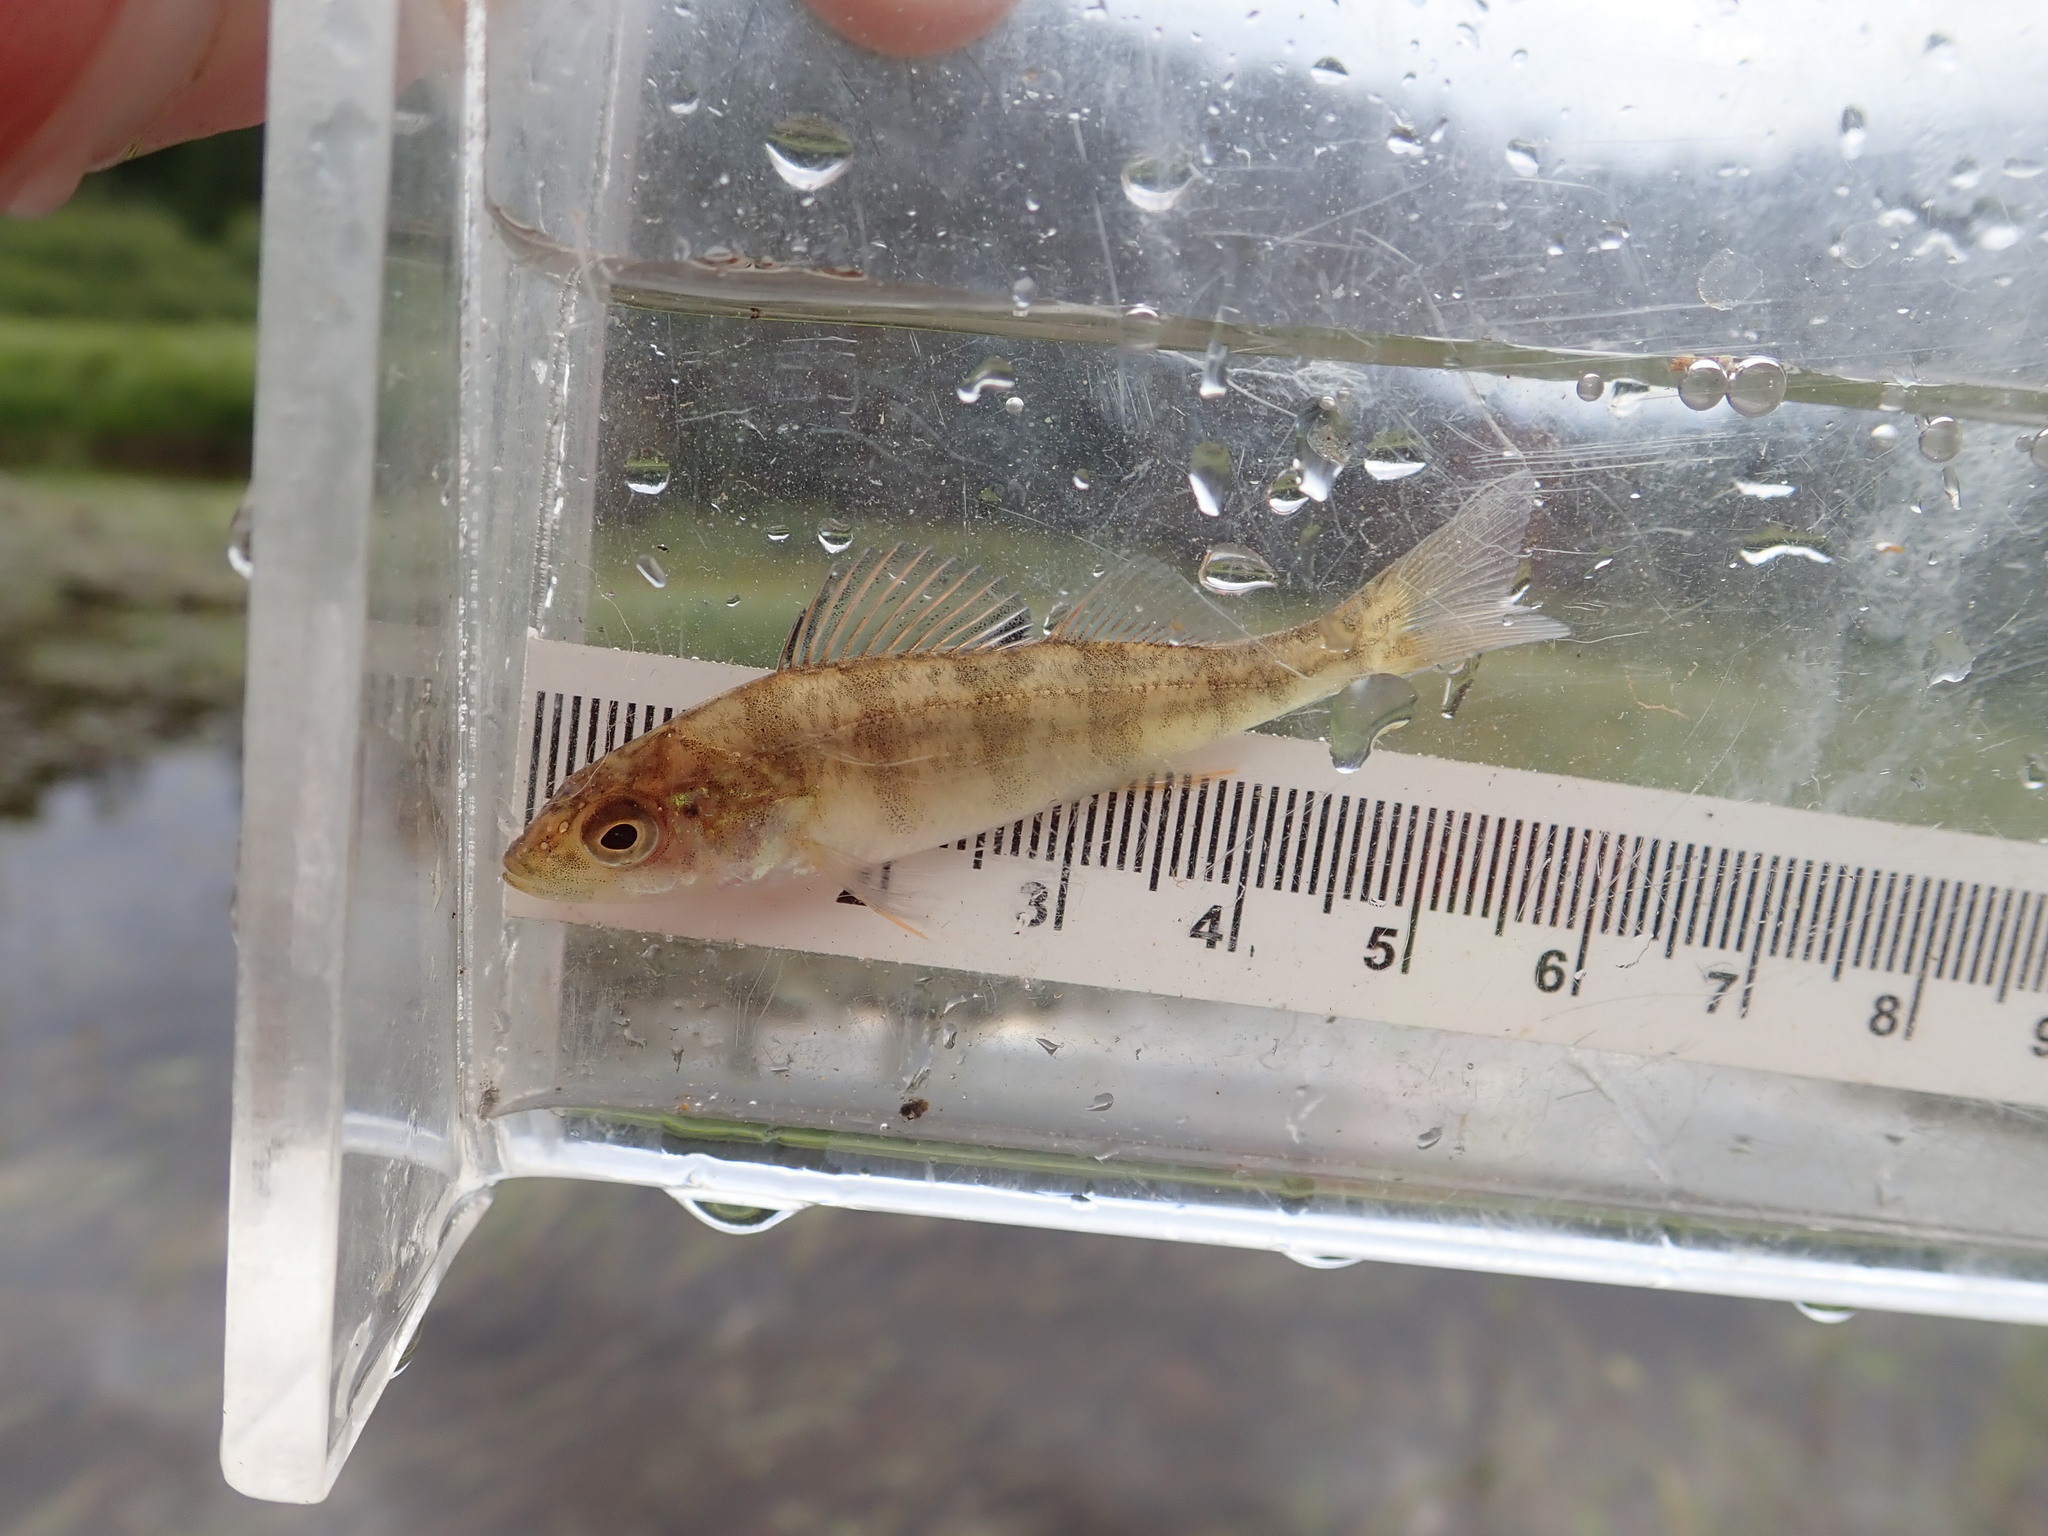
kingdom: Animalia
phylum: Chordata
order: Perciformes
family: Percidae
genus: Perca
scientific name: Perca flavescens
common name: Yellow perch
